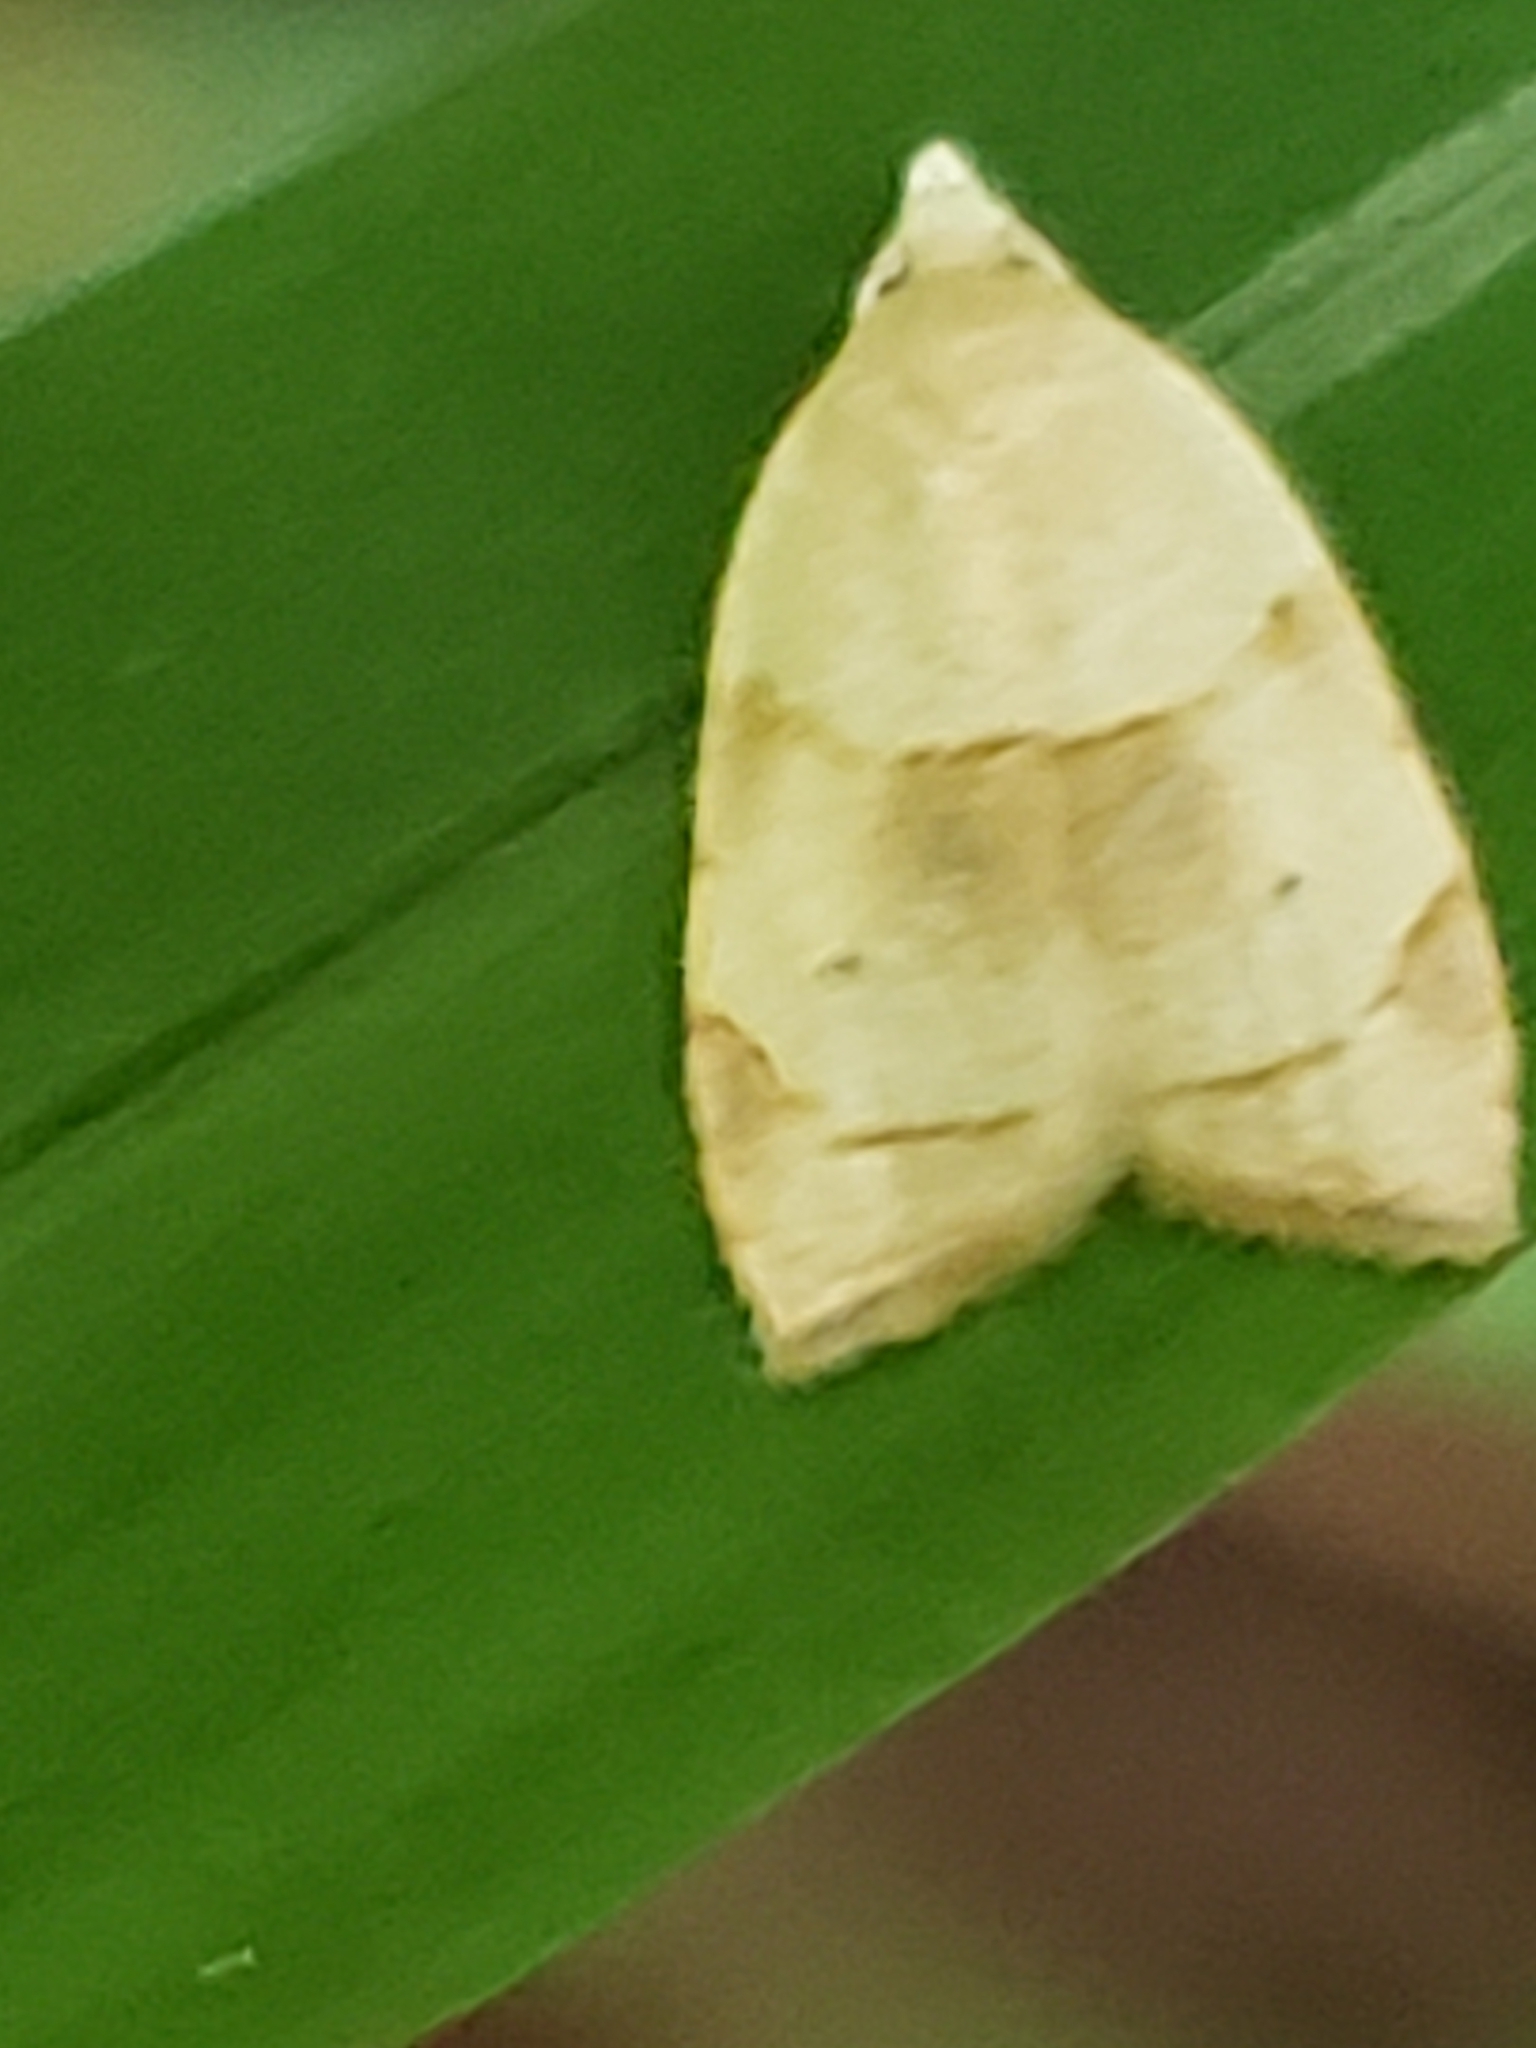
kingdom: Animalia
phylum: Arthropoda
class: Insecta
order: Lepidoptera
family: Tortricidae
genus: Coelostathma
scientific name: Coelostathma discopunctana
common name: Batman moth
